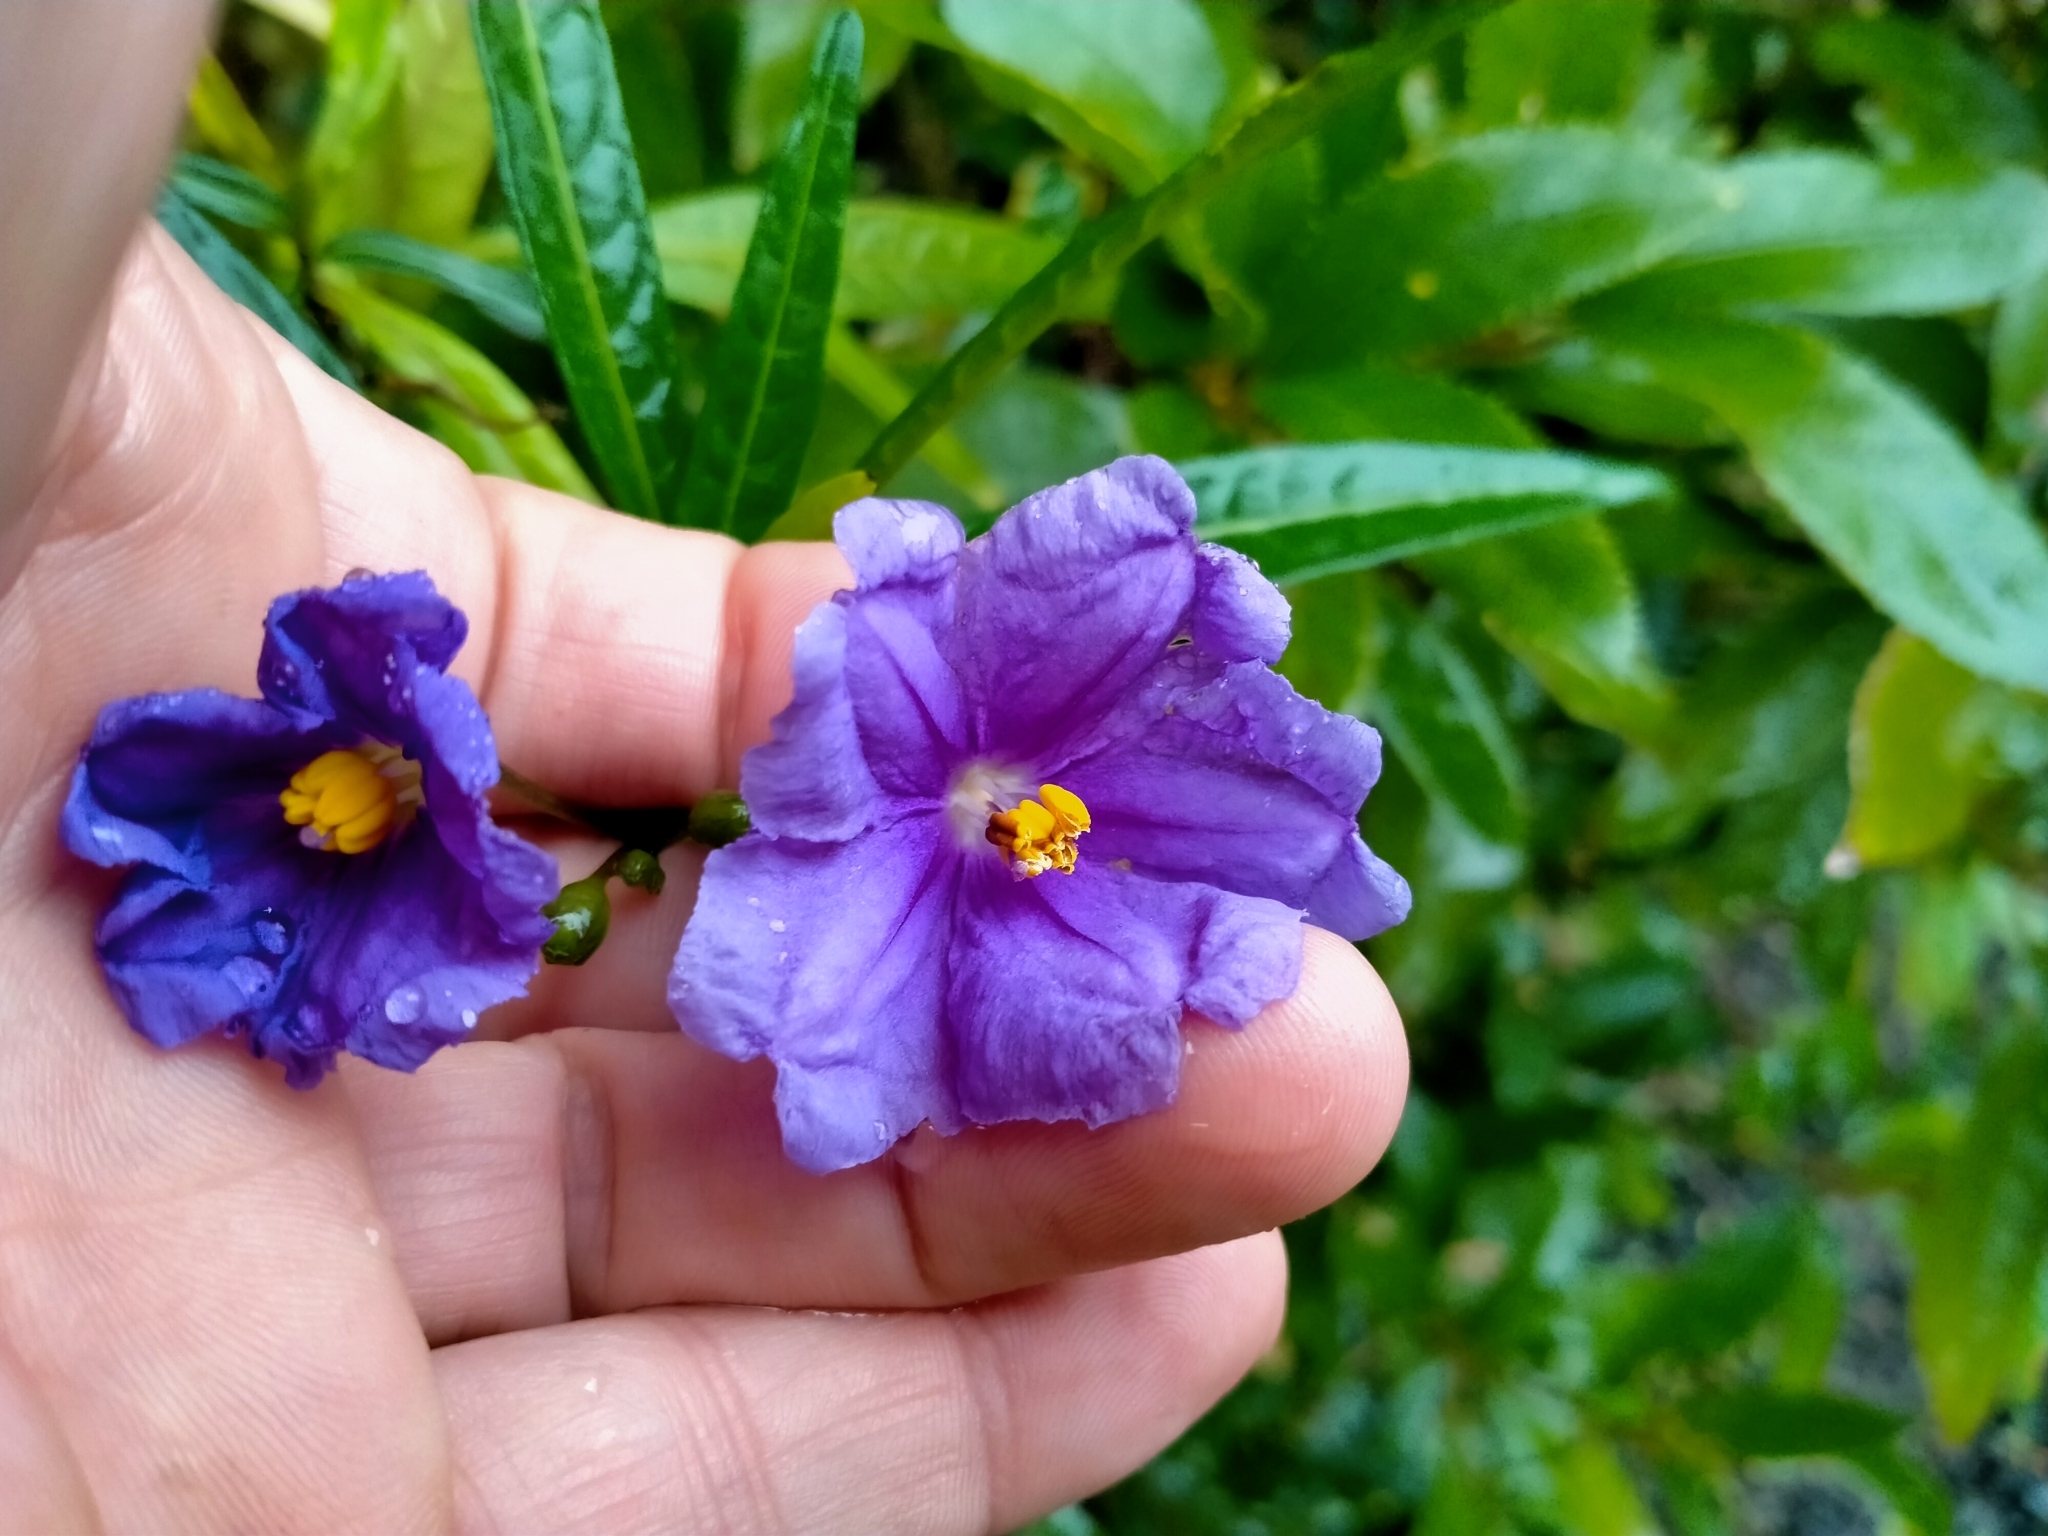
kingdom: Plantae
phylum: Tracheophyta
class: Magnoliopsida
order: Solanales
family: Solanaceae
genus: Solanum
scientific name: Solanum laciniatum
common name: Kangaroo-apple
